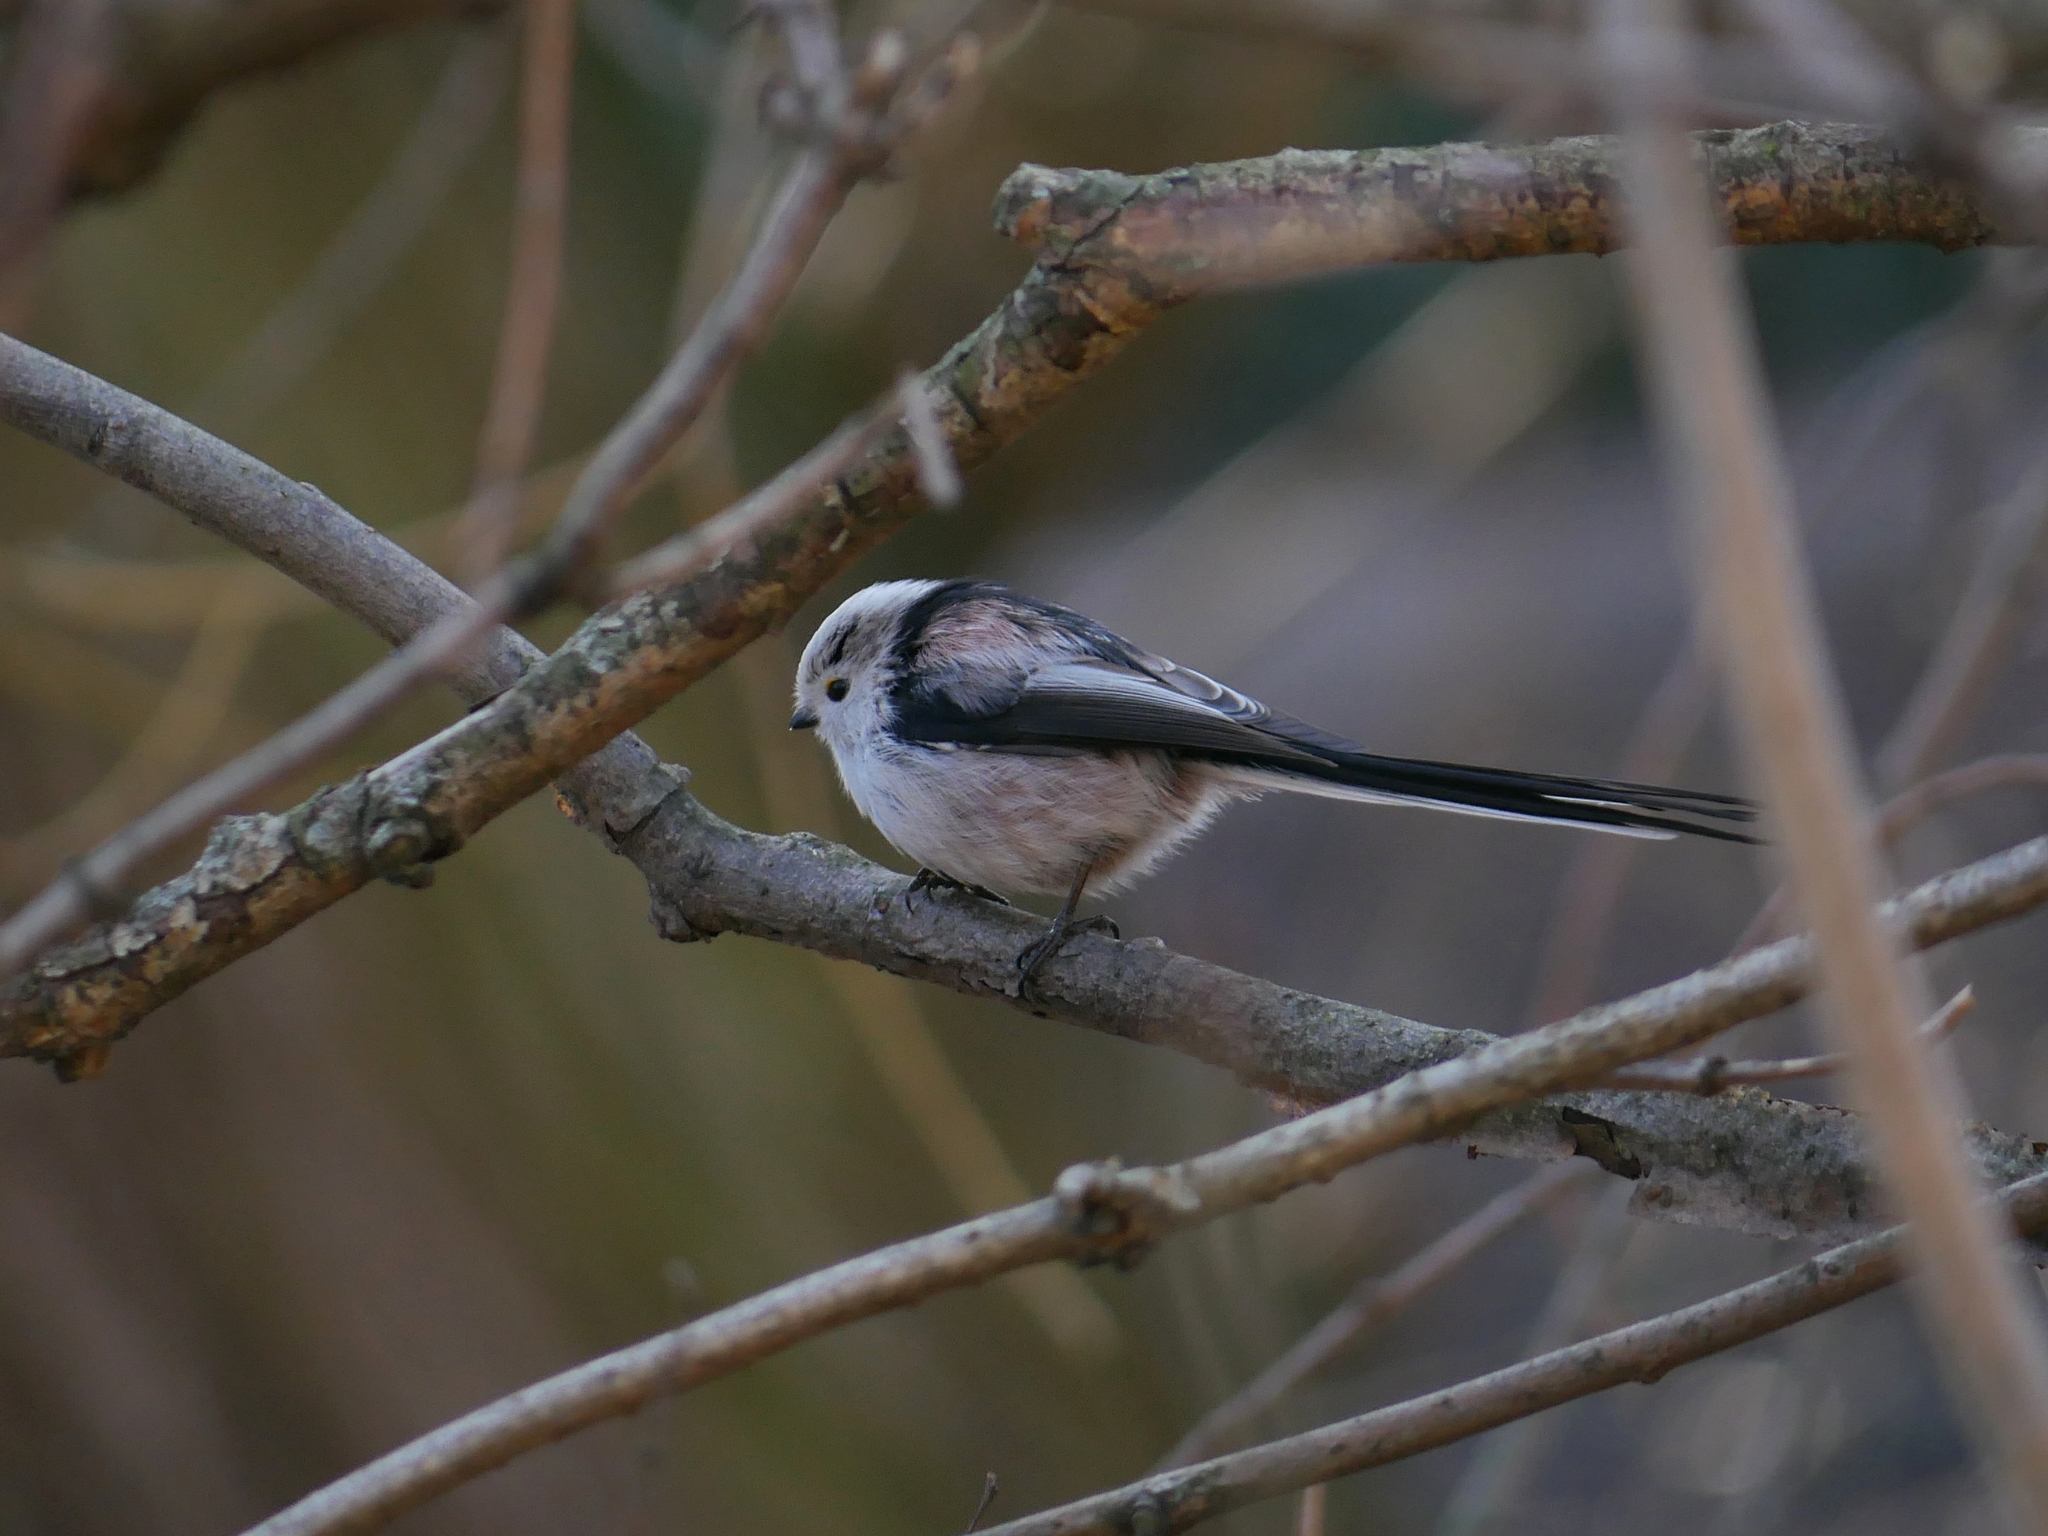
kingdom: Animalia
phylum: Chordata
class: Aves
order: Passeriformes
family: Aegithalidae
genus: Aegithalos
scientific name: Aegithalos caudatus
